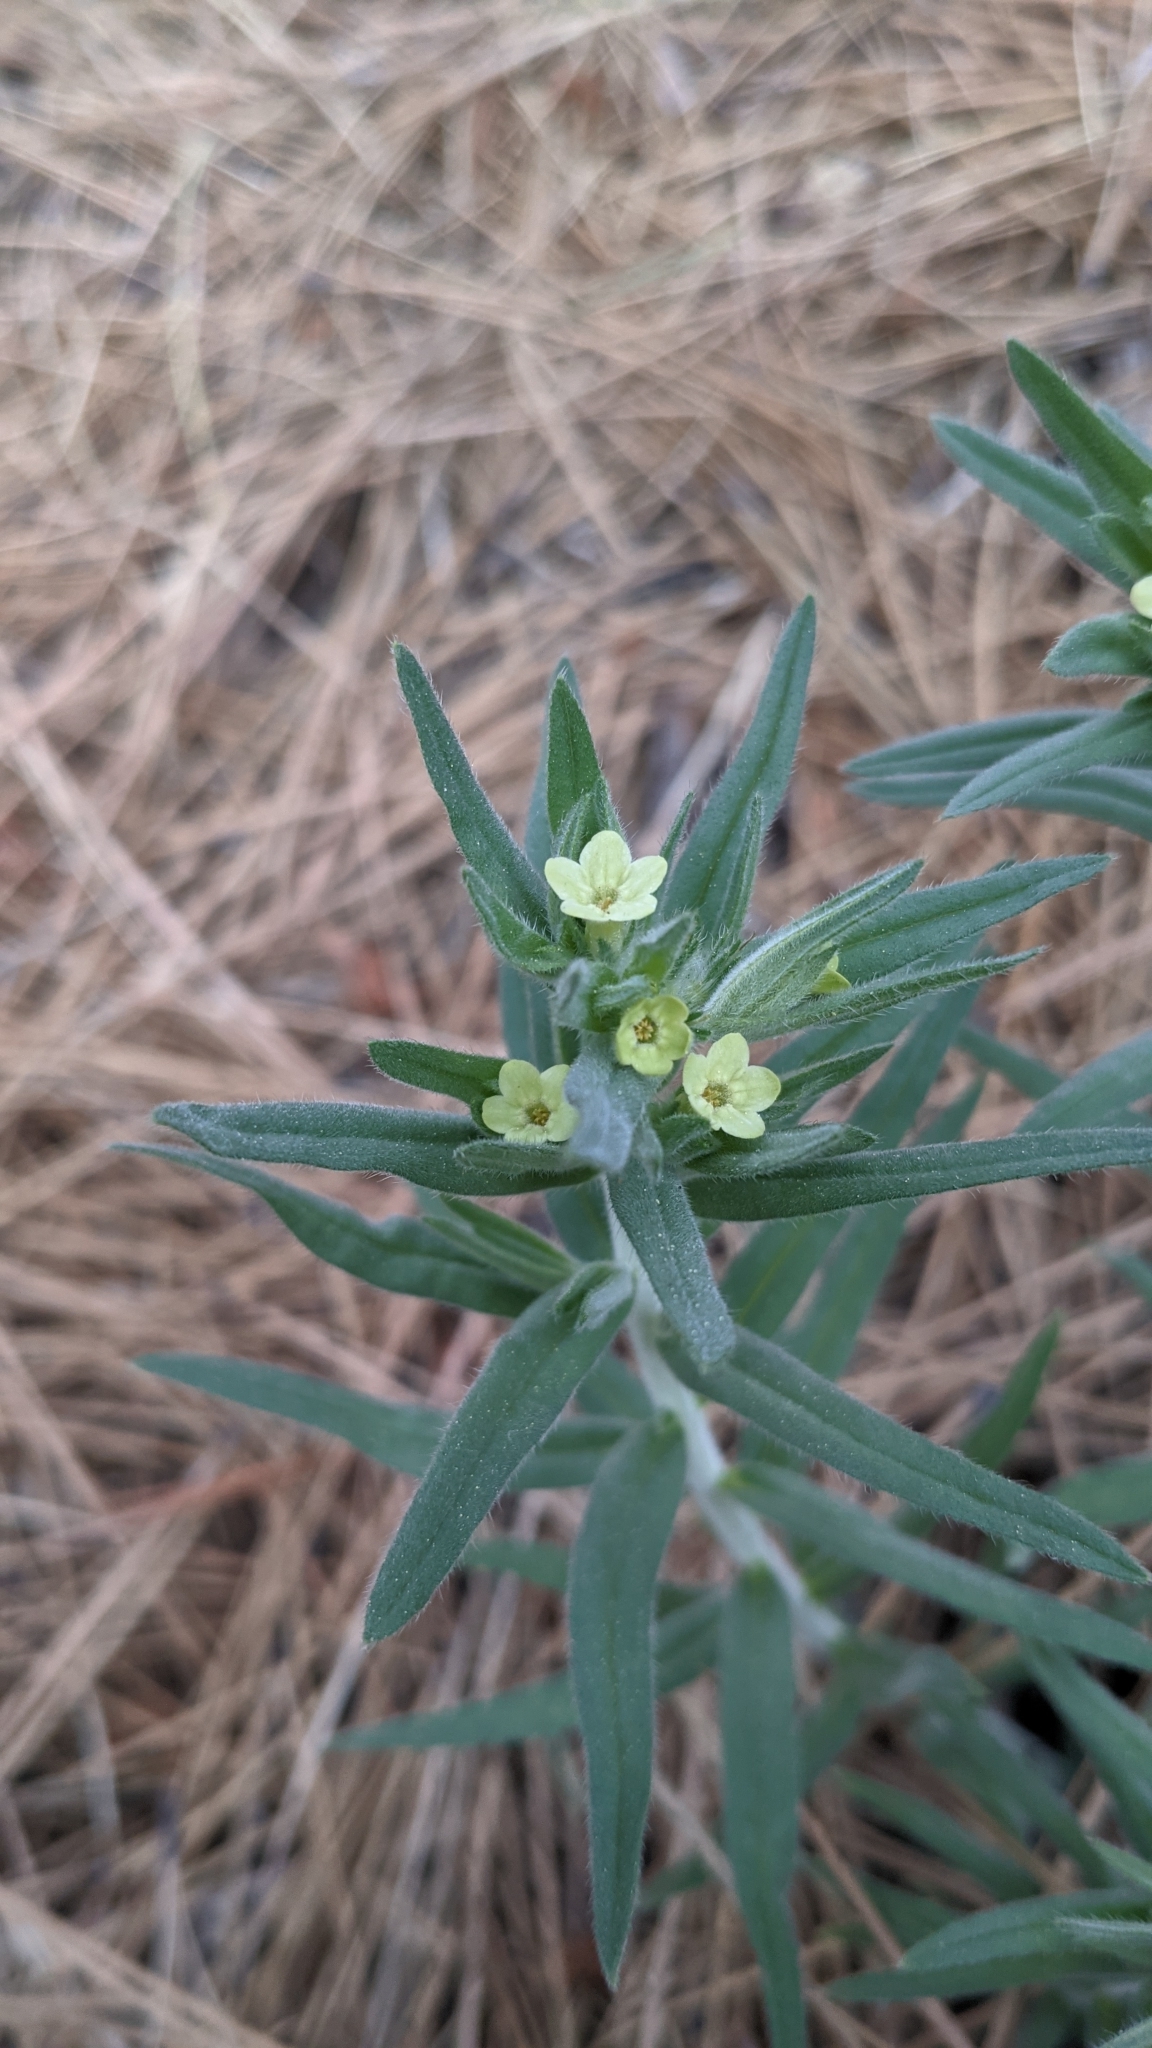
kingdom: Plantae
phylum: Tracheophyta
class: Magnoliopsida
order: Boraginales
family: Boraginaceae
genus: Lithospermum
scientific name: Lithospermum ruderale
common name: Western gromwell
